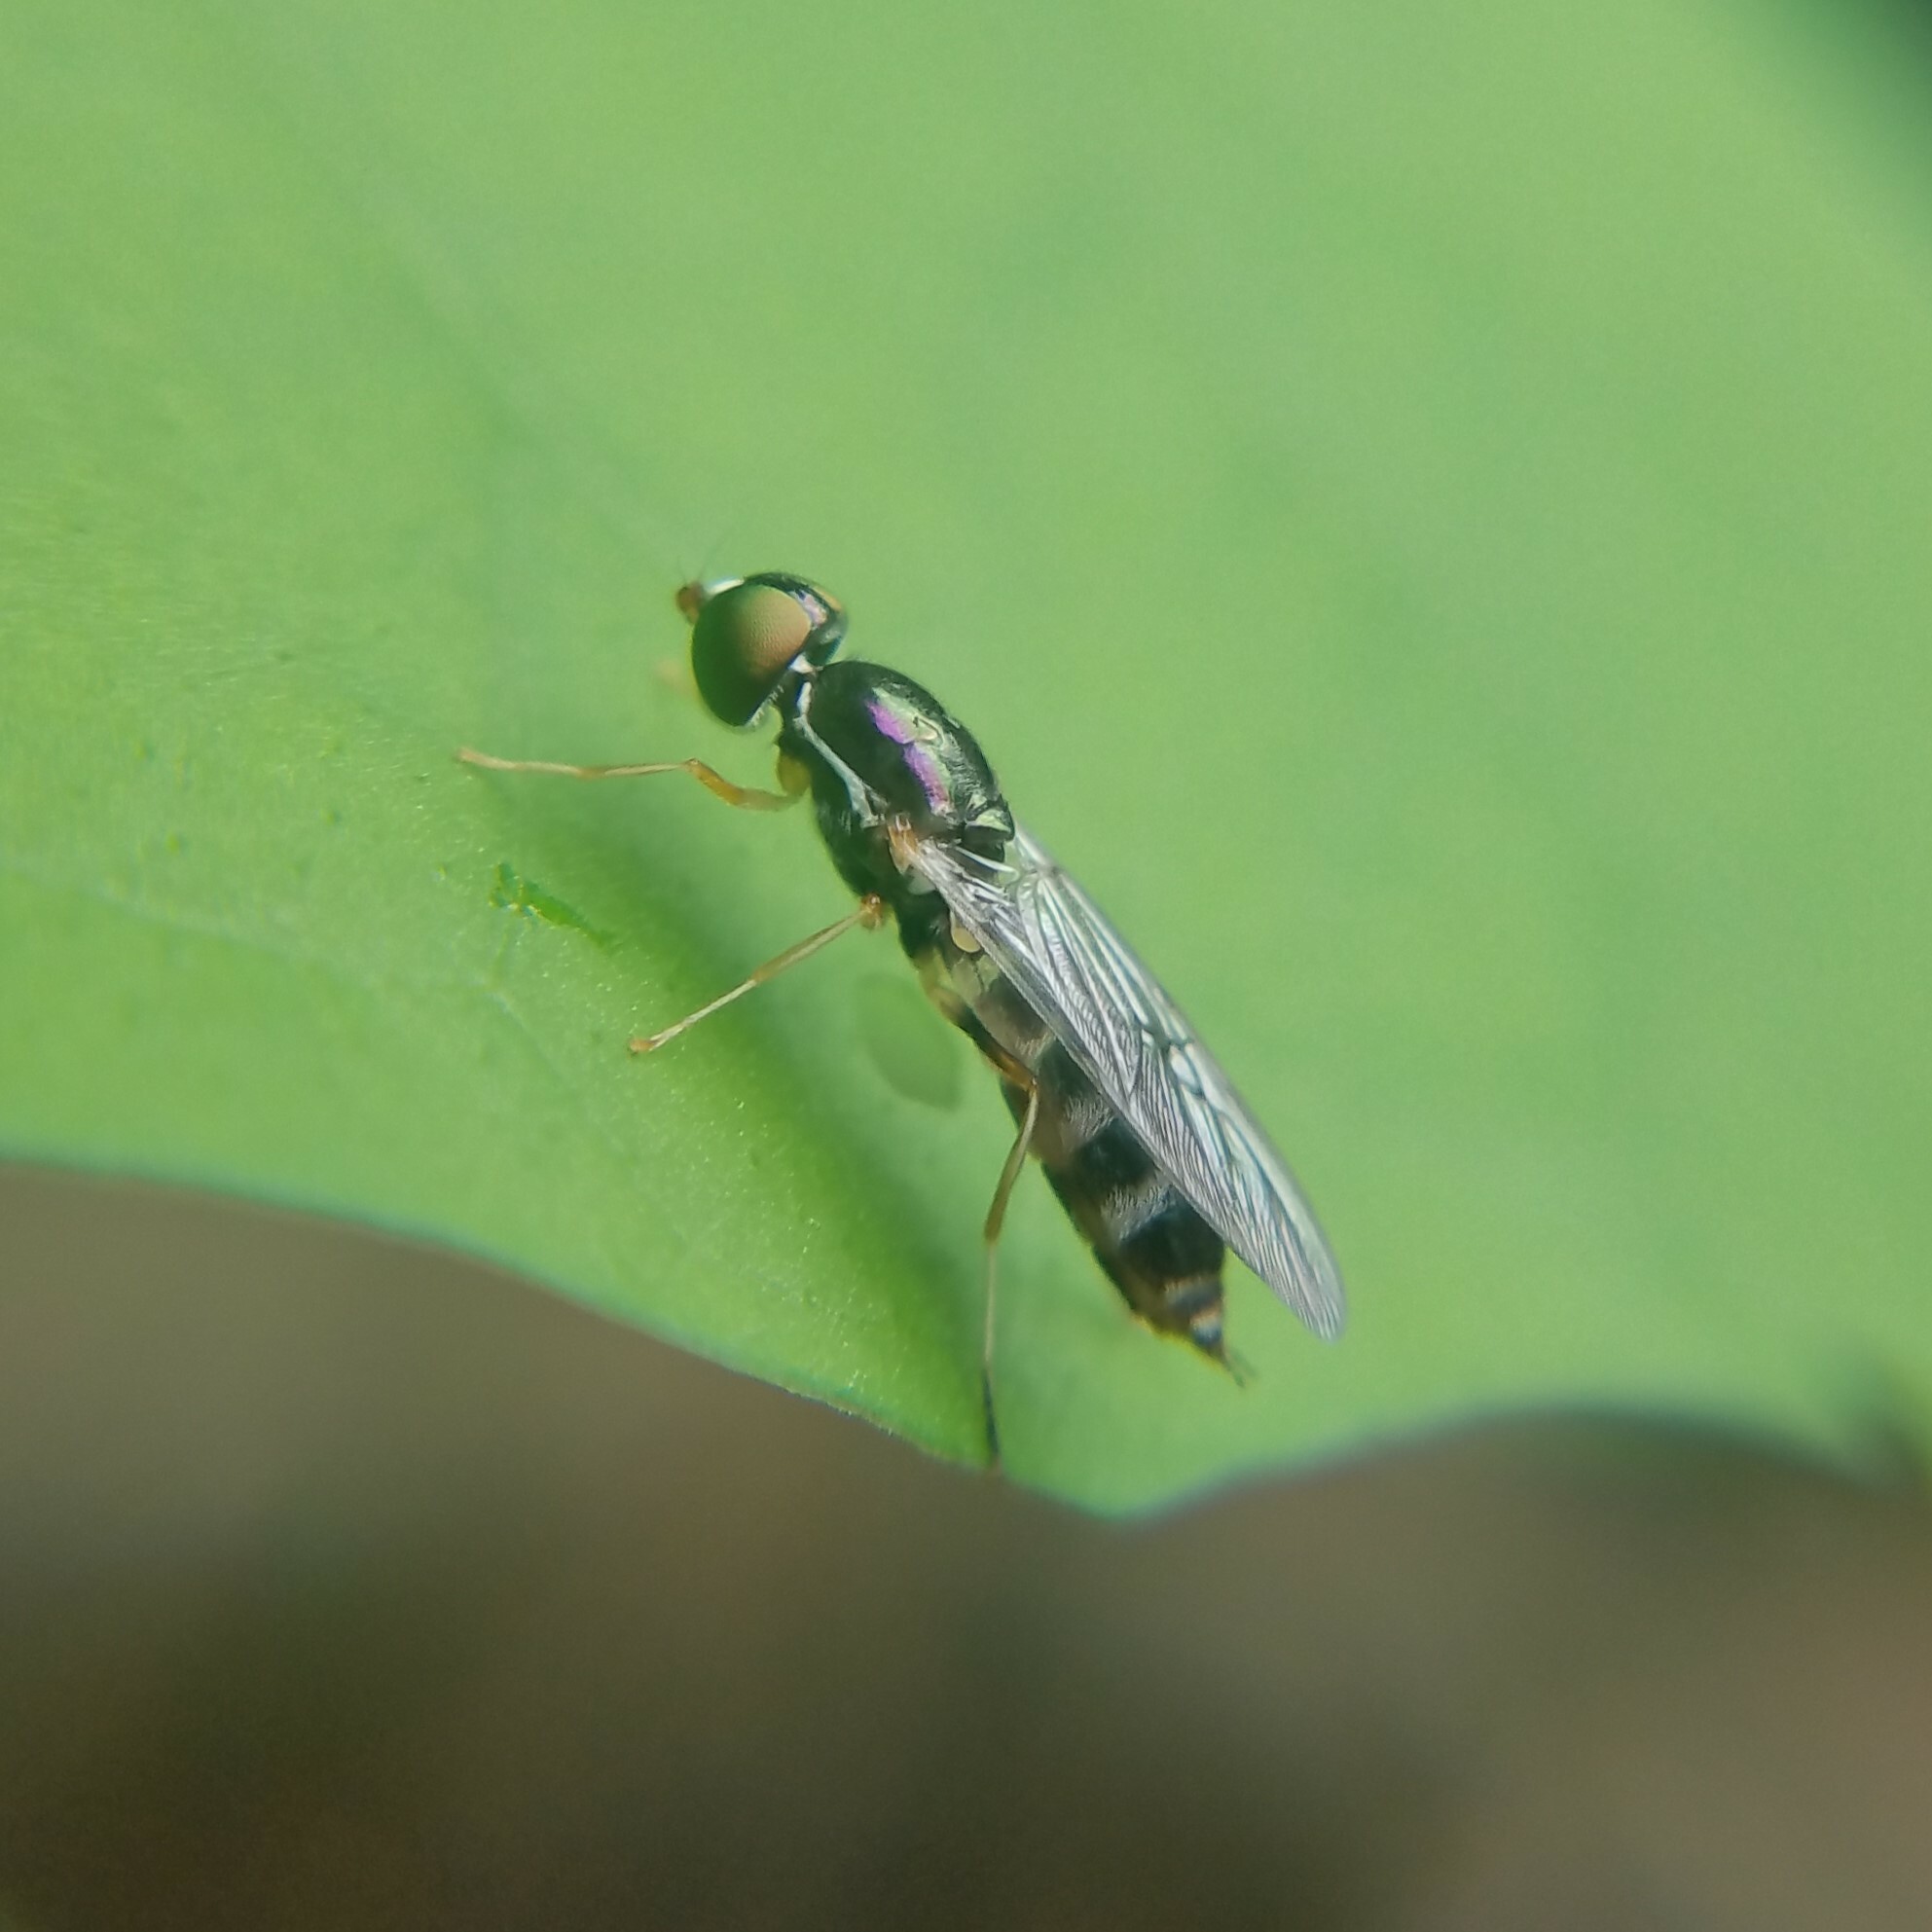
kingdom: Animalia
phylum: Arthropoda
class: Insecta
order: Diptera
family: Stratiomyidae
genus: Sargus
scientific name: Sargus fasciatus
